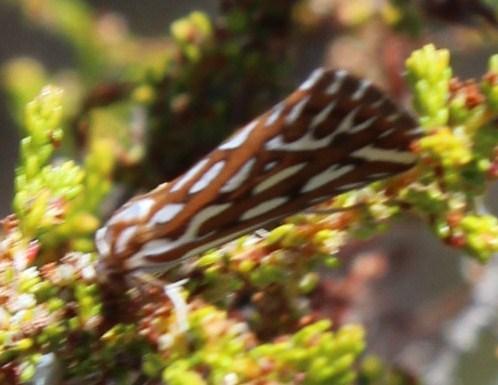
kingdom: Animalia
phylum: Arthropoda
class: Insecta
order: Lepidoptera
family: Geometridae
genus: Argyrophora
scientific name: Argyrophora trofonia
